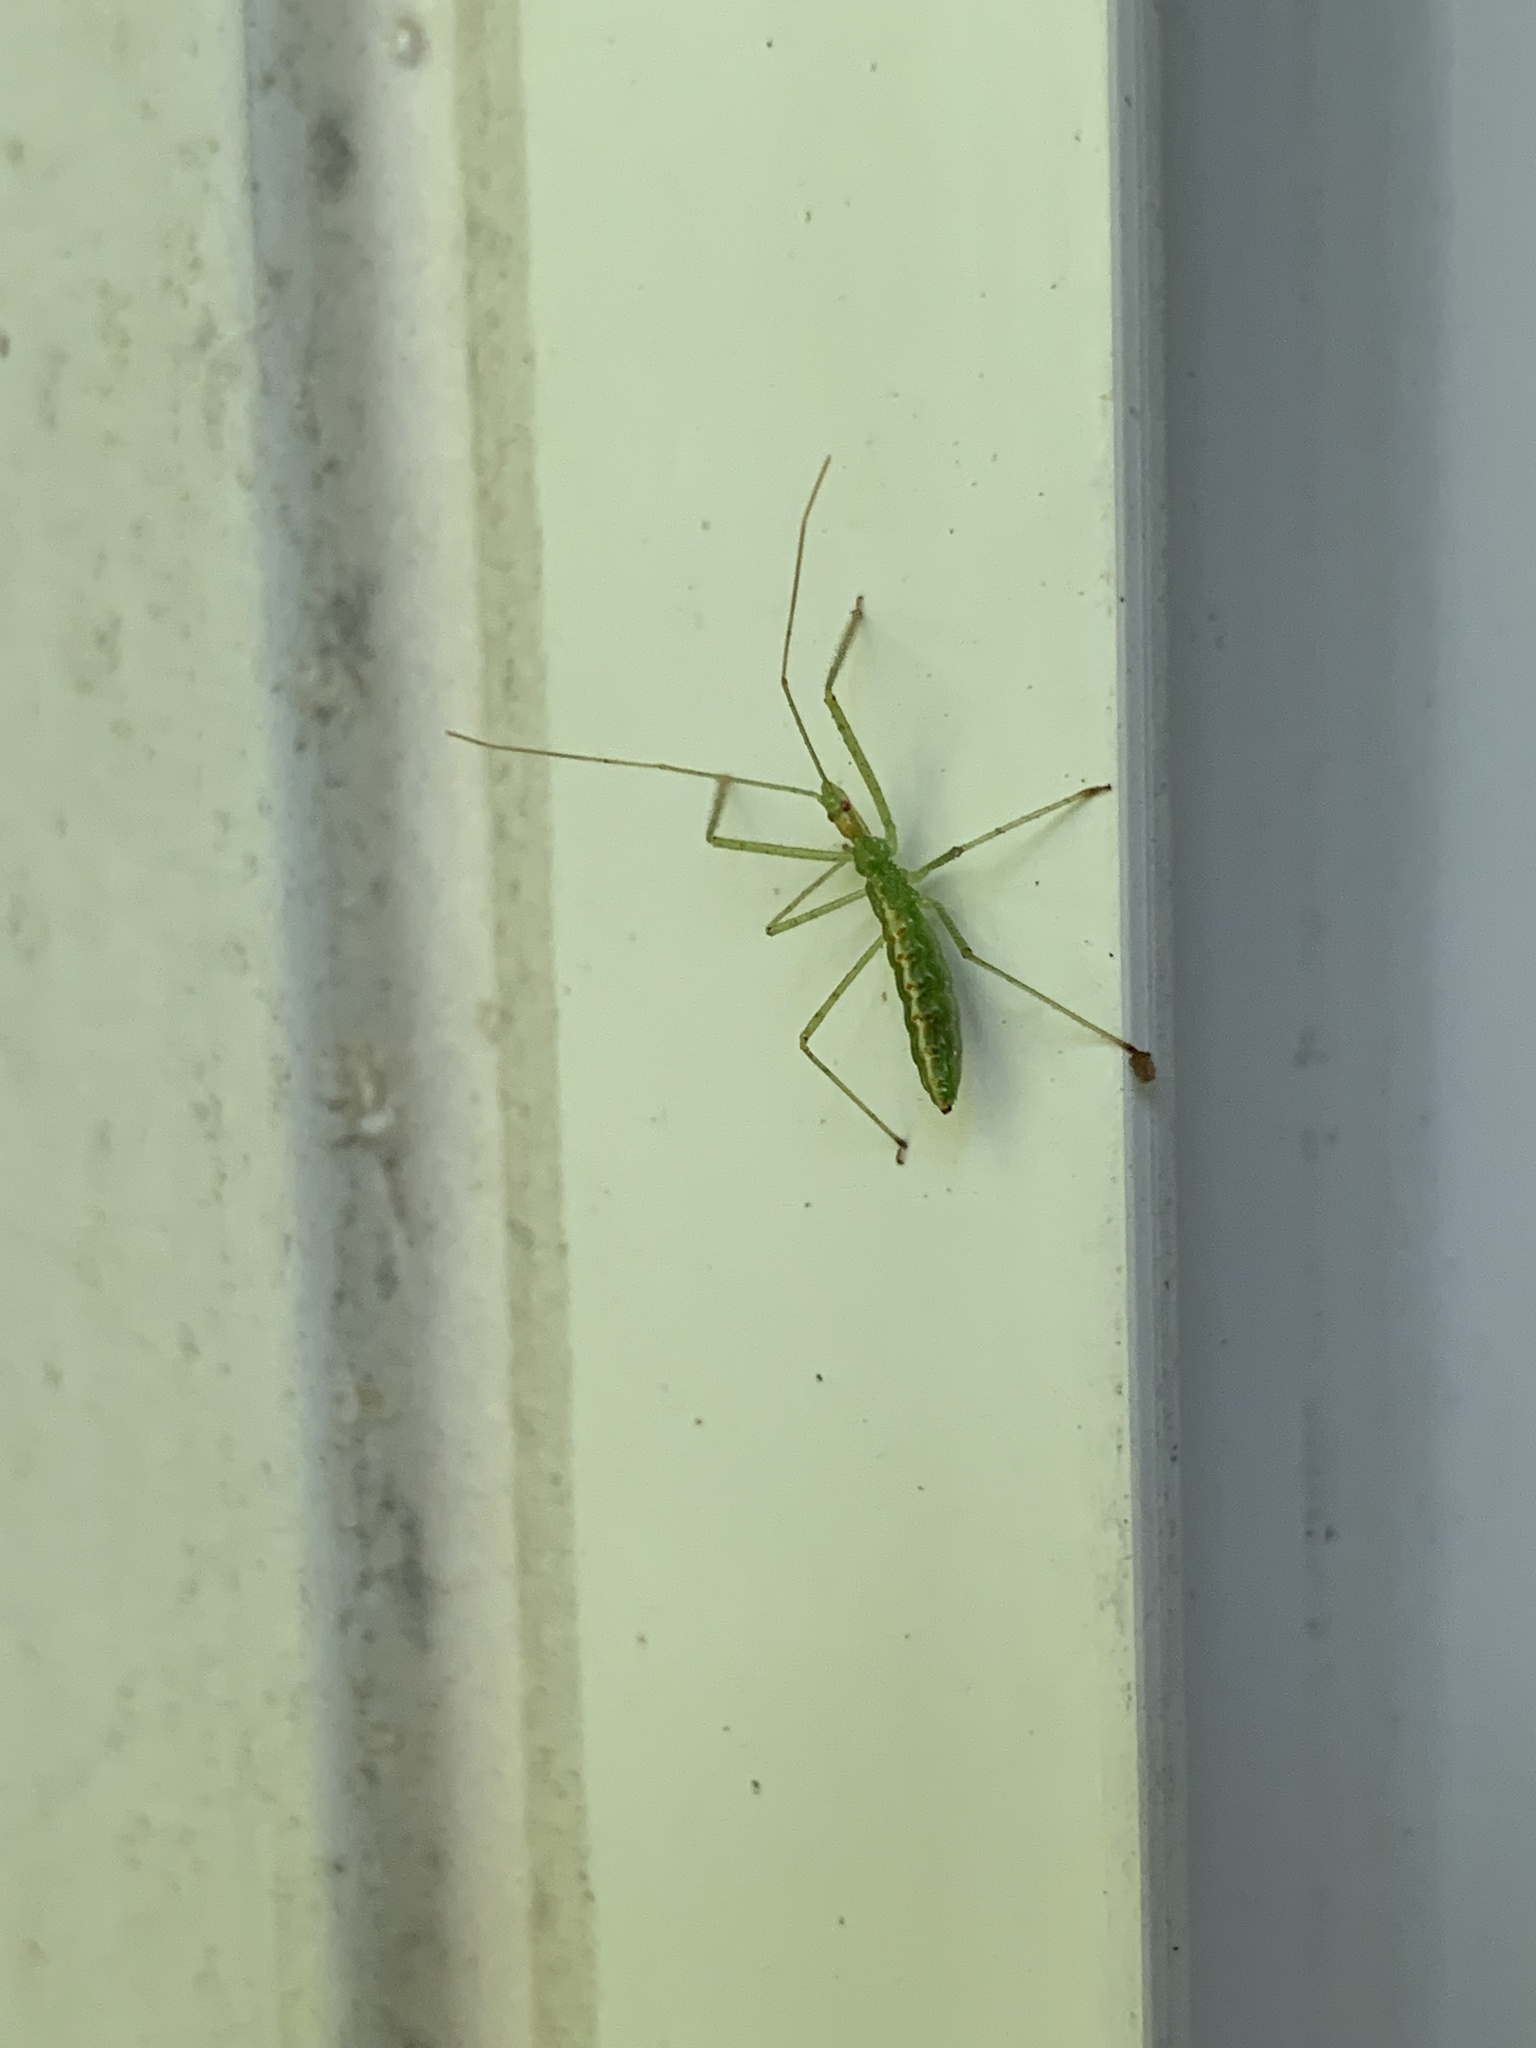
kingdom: Animalia
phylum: Arthropoda
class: Insecta
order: Hemiptera
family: Reduviidae
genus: Zelus
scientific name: Zelus luridus
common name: Pale green assassin bug
